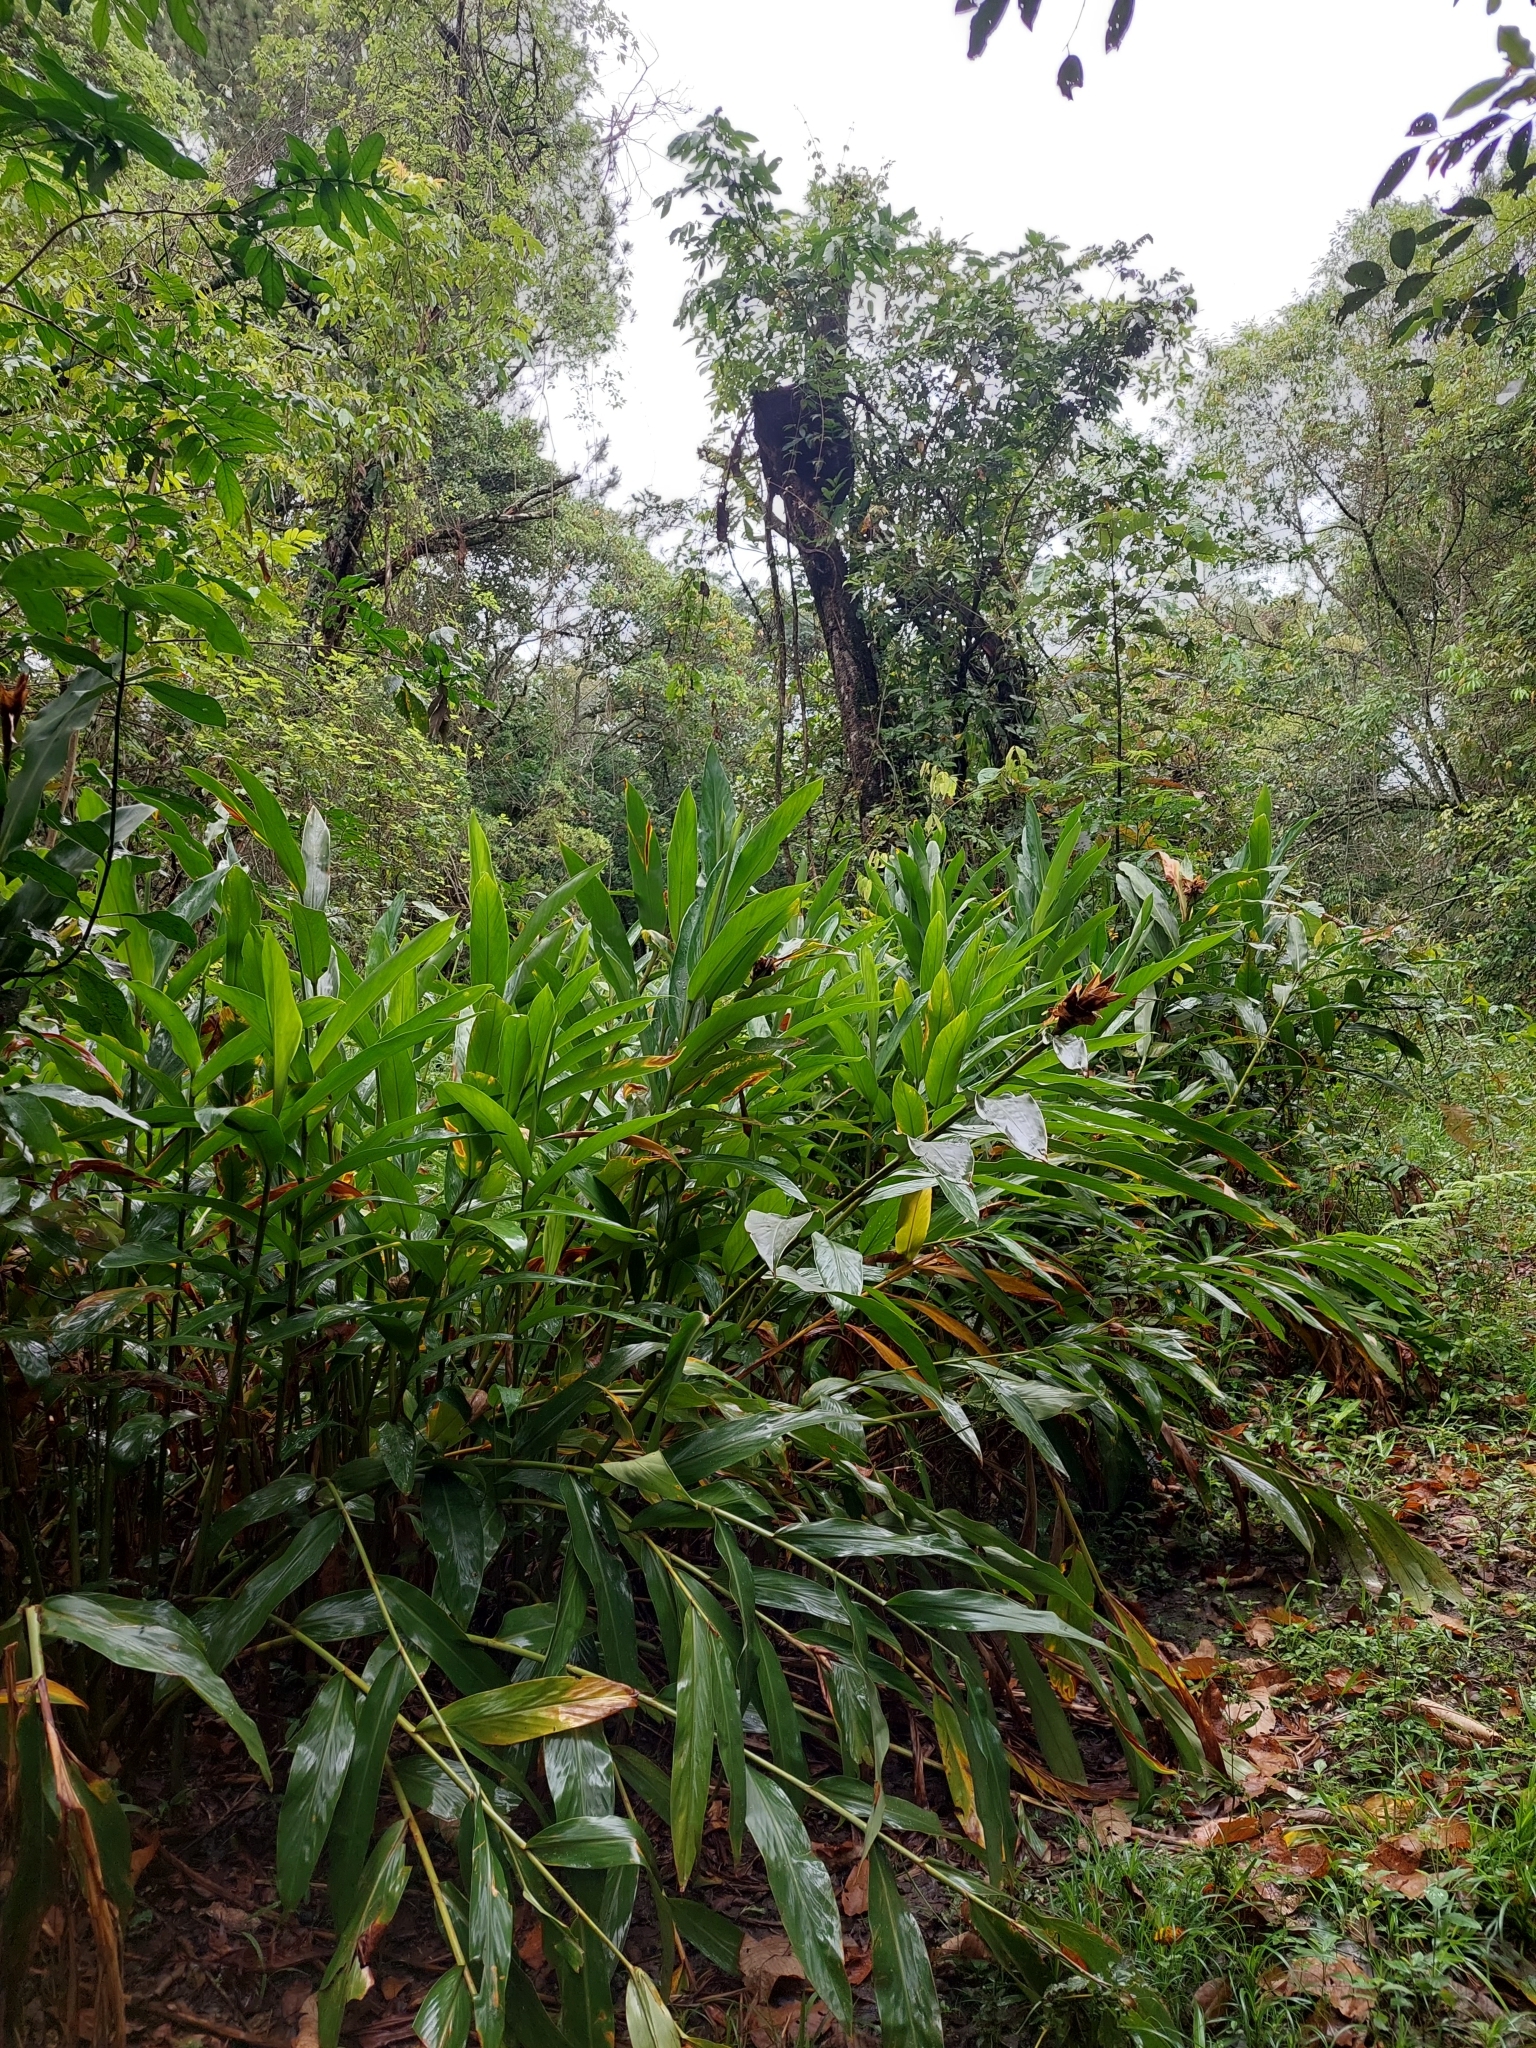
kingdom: Plantae
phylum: Tracheophyta
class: Liliopsida
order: Zingiberales
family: Zingiberaceae
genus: Hedychium
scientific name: Hedychium coronarium
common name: White garland-lily
